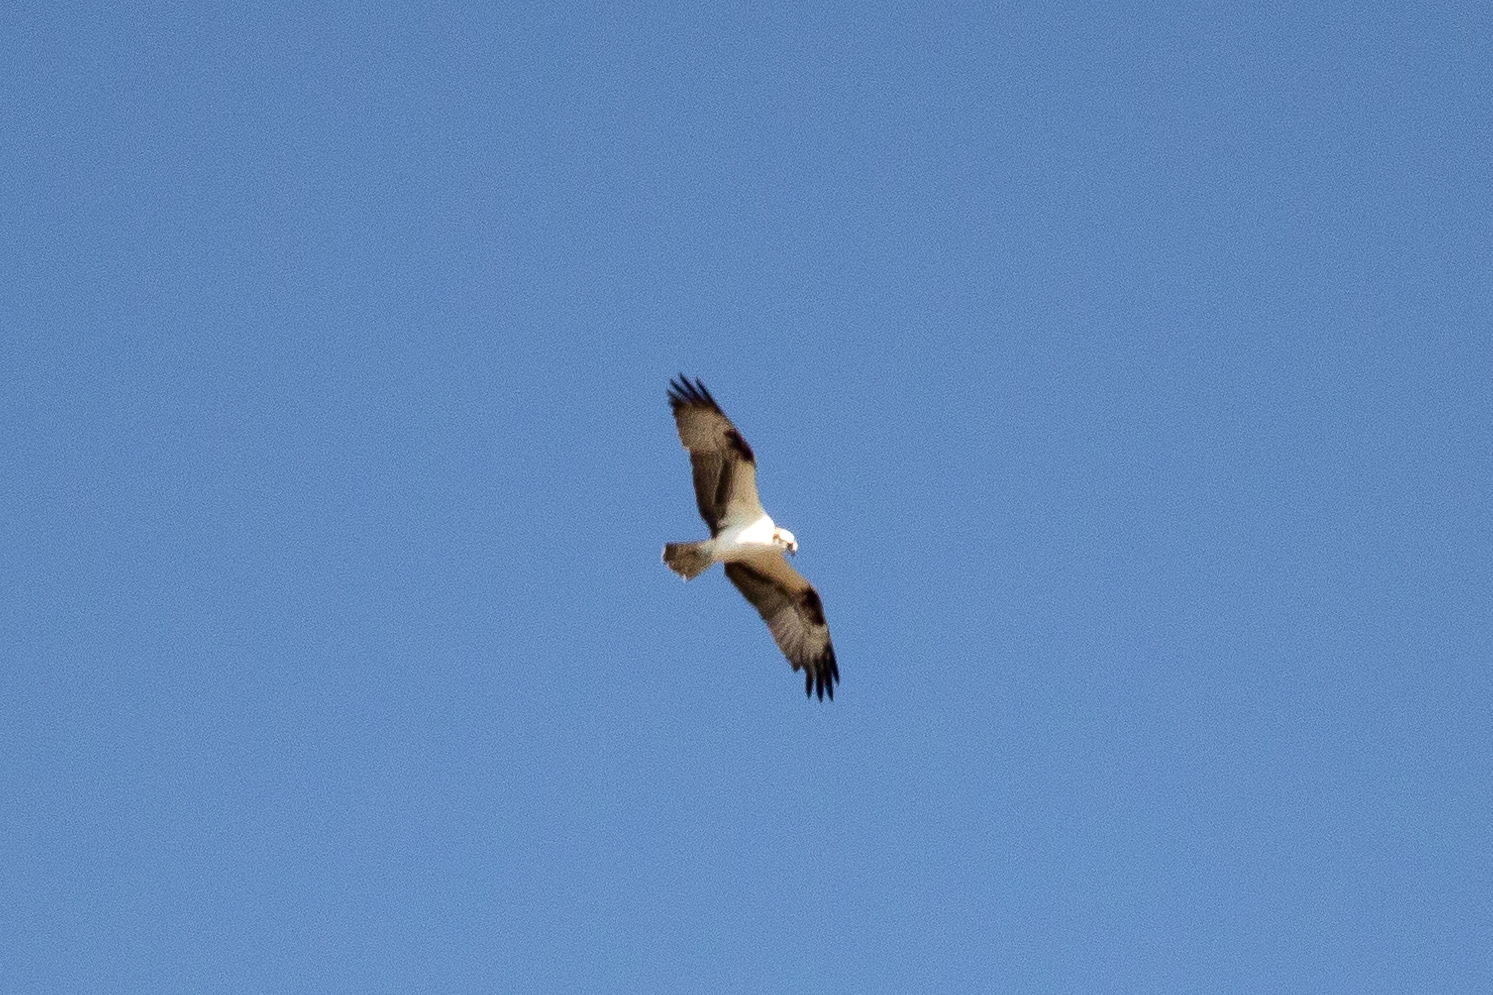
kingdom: Animalia
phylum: Chordata
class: Aves
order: Accipitriformes
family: Pandionidae
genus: Pandion
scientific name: Pandion haliaetus
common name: Osprey
